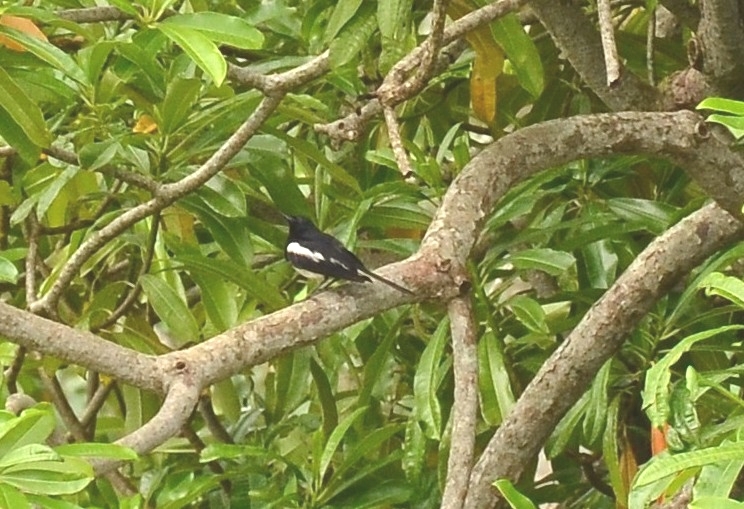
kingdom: Animalia
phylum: Chordata
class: Aves
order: Passeriformes
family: Muscicapidae
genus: Copsychus
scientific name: Copsychus saularis
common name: Oriental magpie-robin
